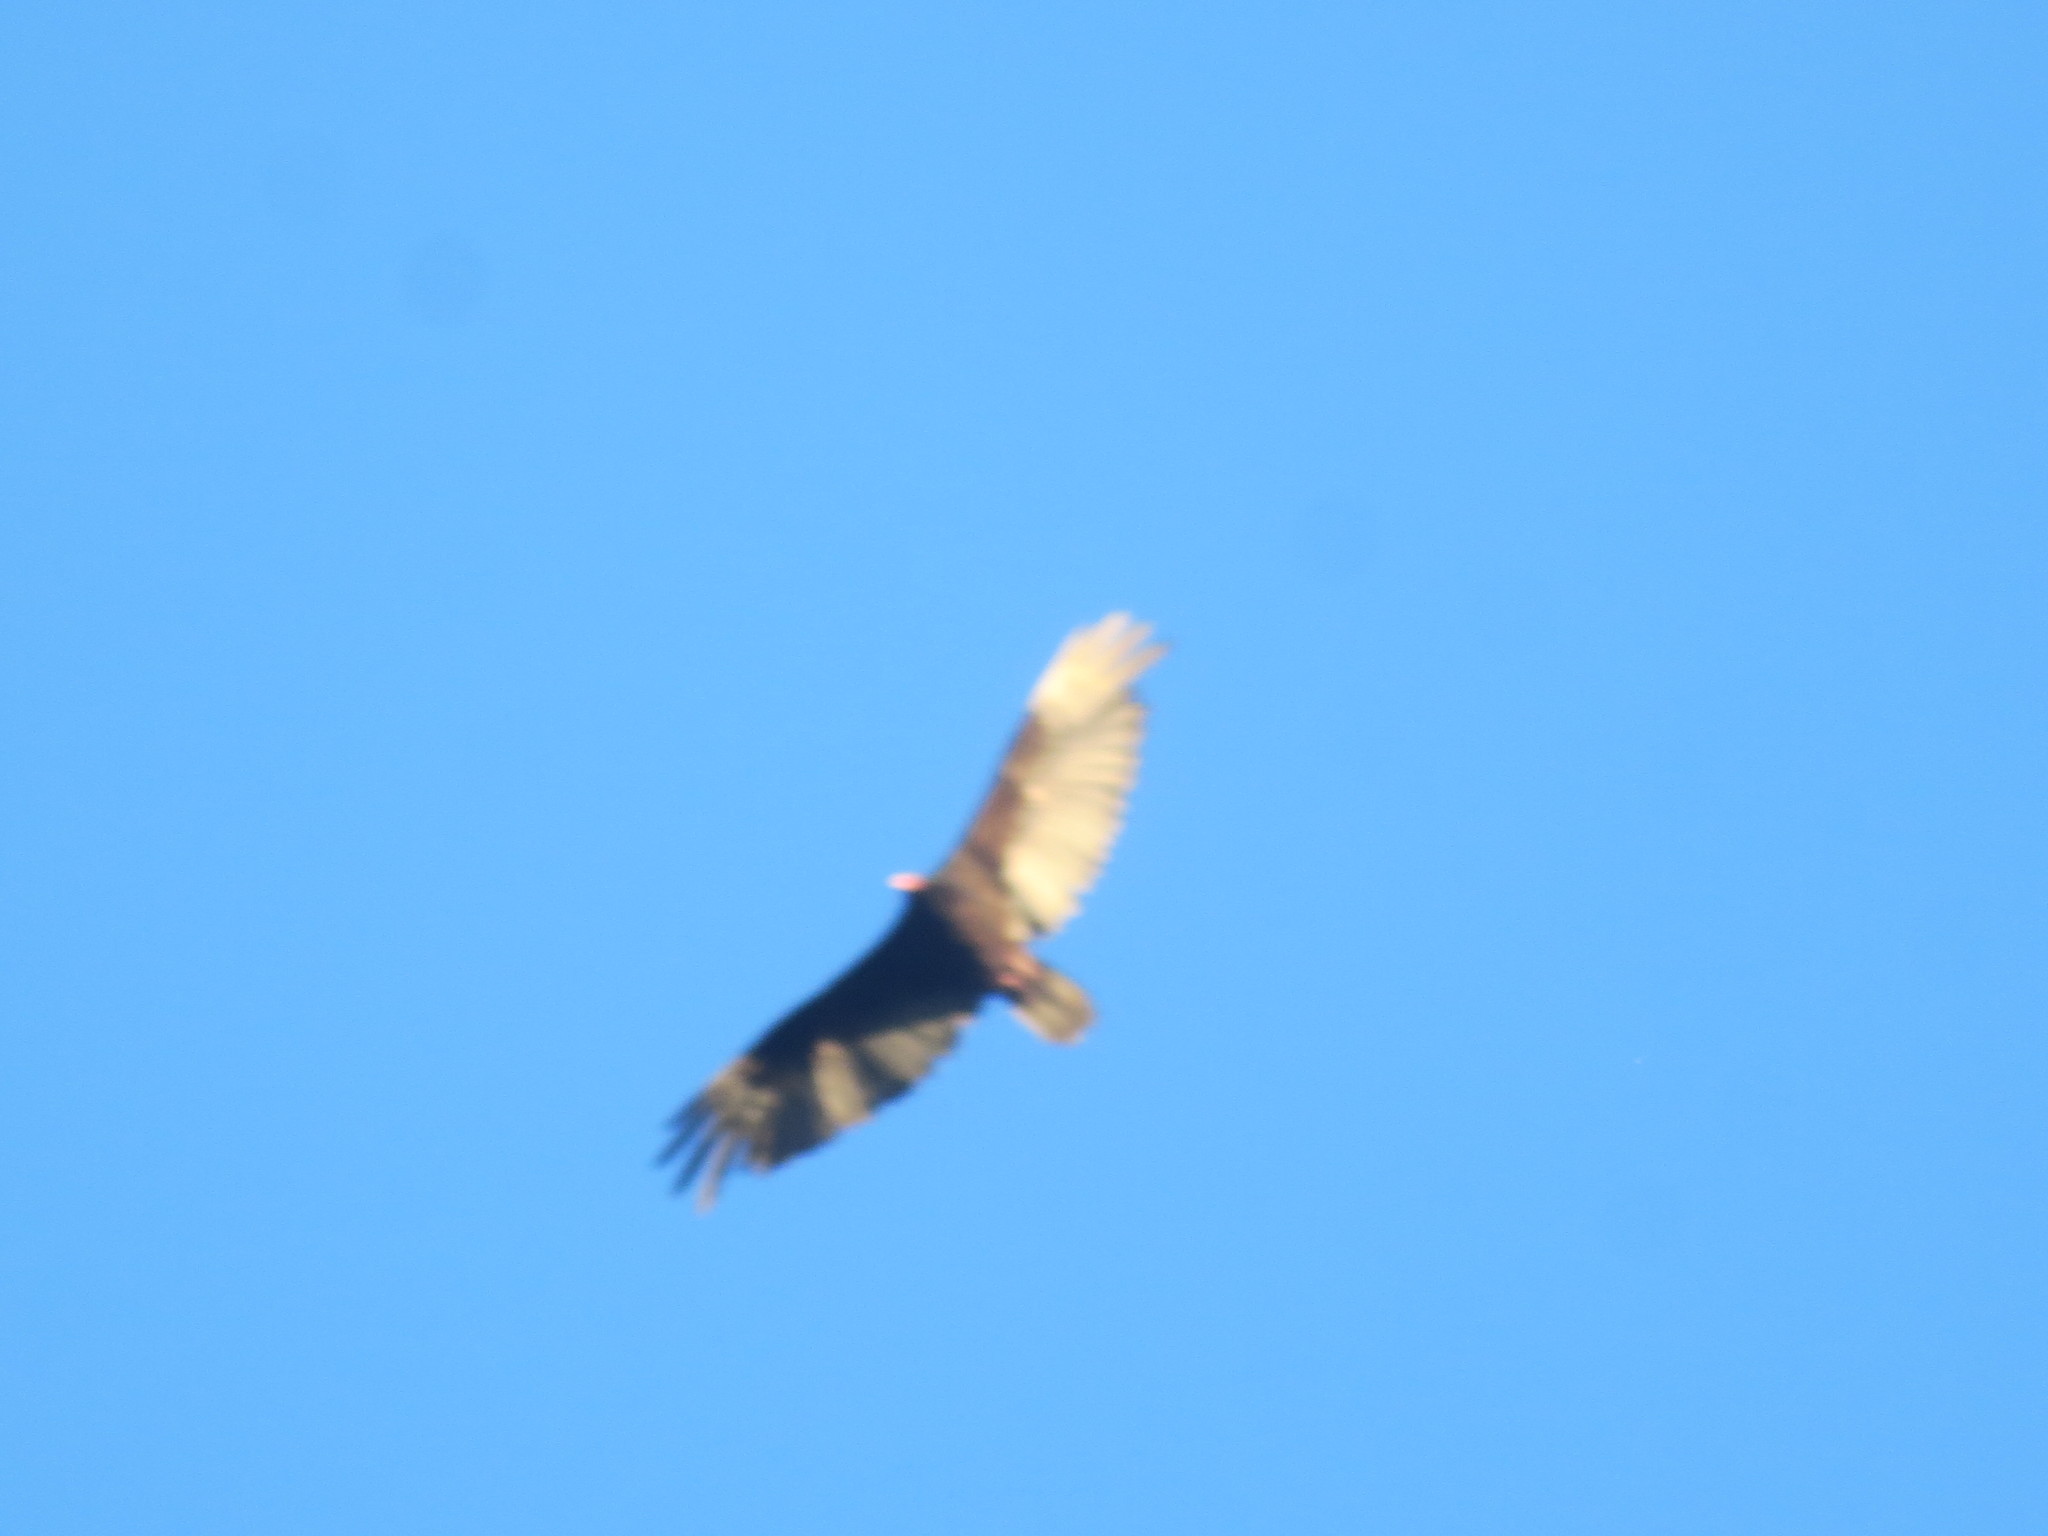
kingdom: Animalia
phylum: Chordata
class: Aves
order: Accipitriformes
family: Cathartidae
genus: Cathartes
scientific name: Cathartes aura
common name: Turkey vulture
